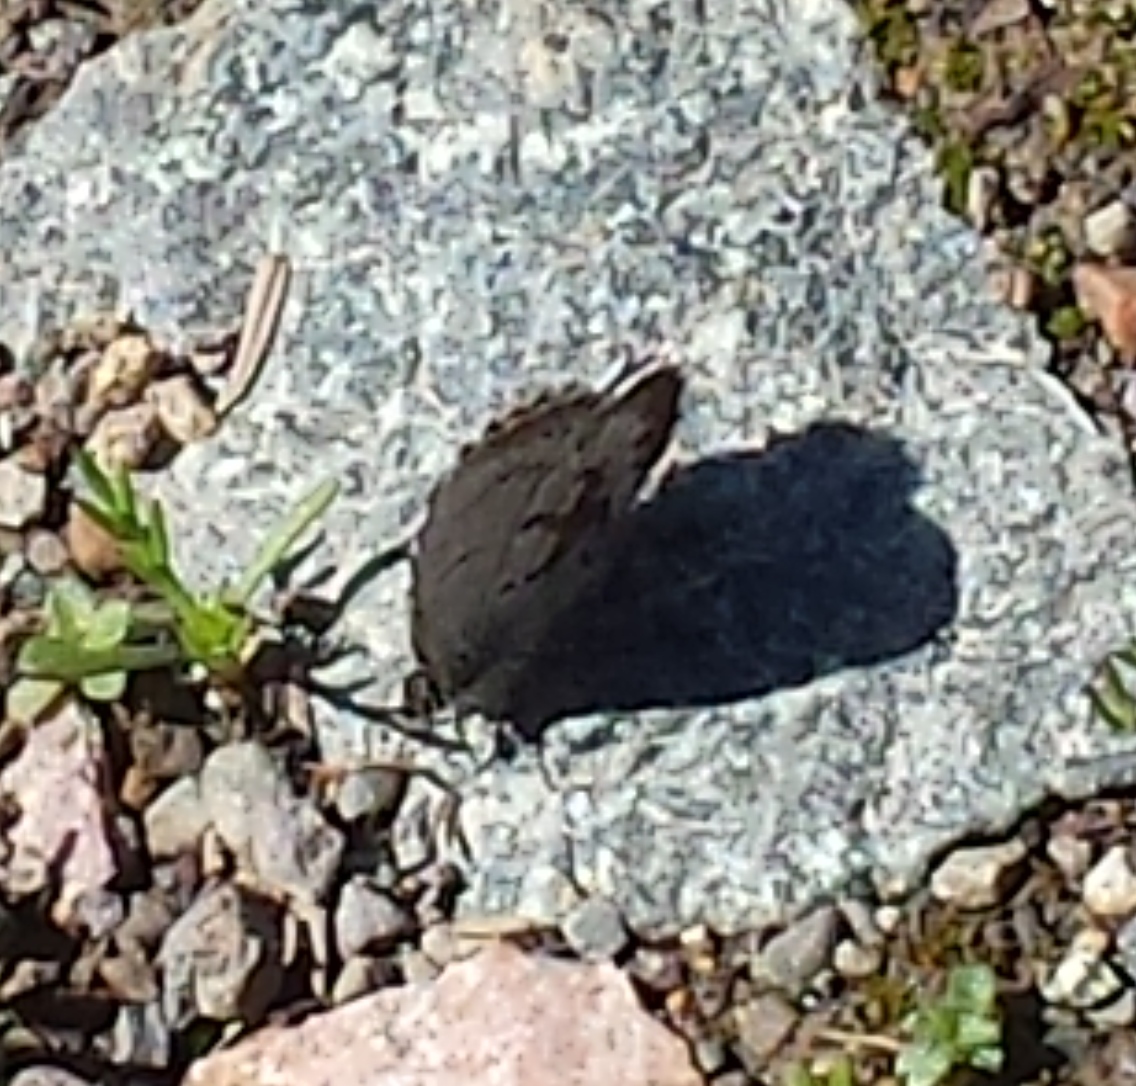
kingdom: Animalia
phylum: Arthropoda
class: Insecta
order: Lepidoptera
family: Lycaenidae
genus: Celastrina
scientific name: Celastrina lucia
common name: Lucia azure
